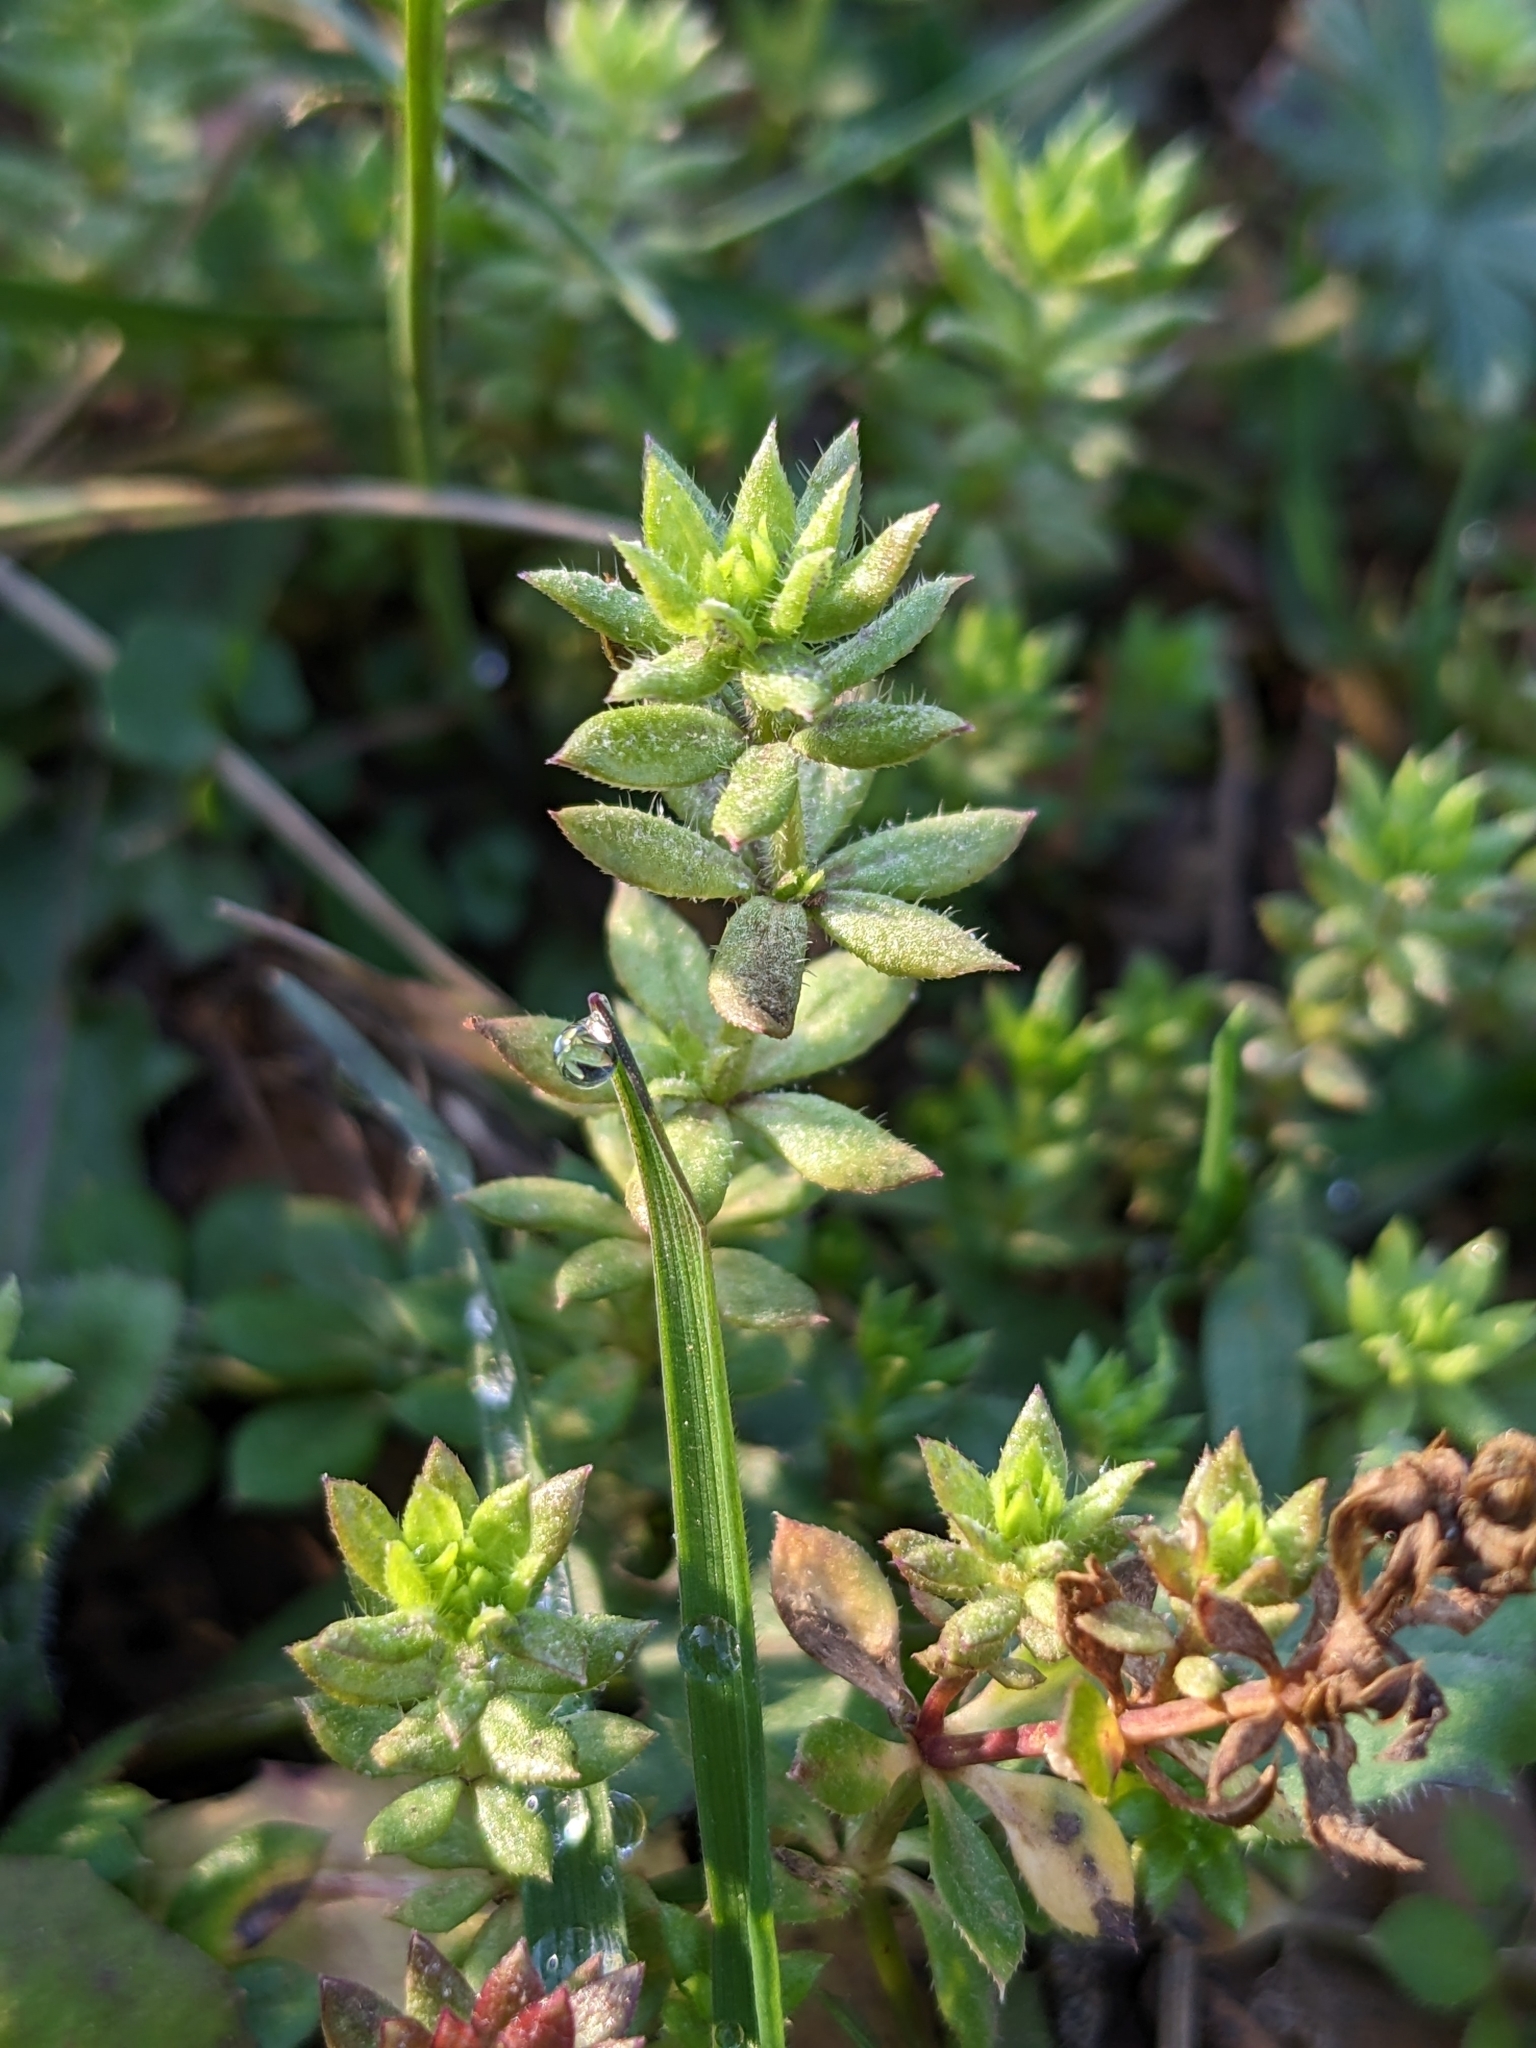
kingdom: Plantae
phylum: Tracheophyta
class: Magnoliopsida
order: Gentianales
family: Rubiaceae
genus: Sherardia
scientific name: Sherardia arvensis
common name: Field madder
